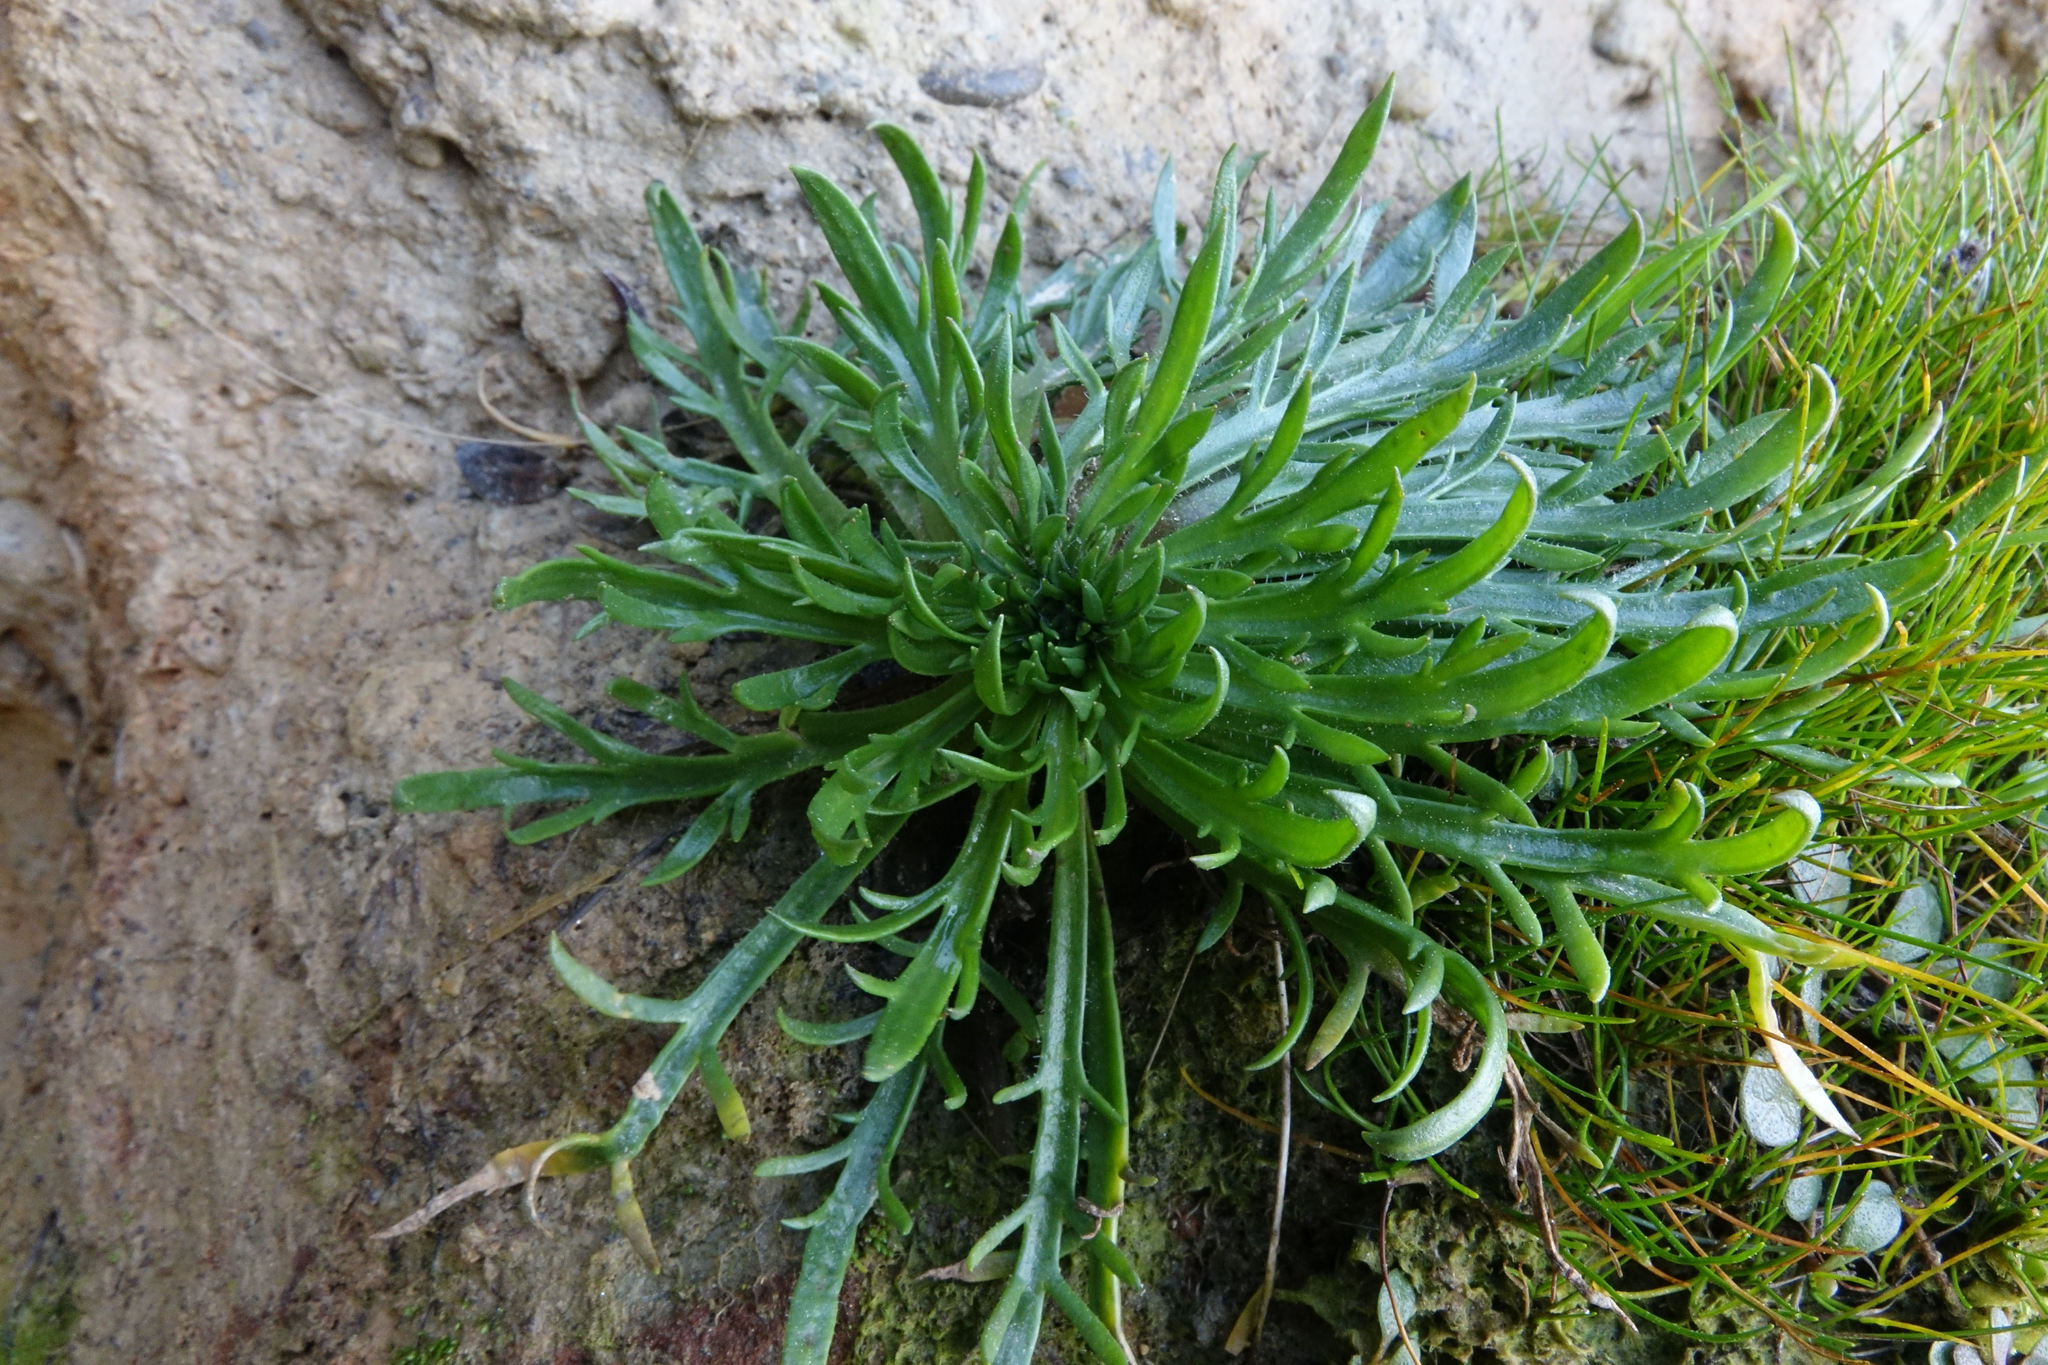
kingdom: Plantae
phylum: Tracheophyta
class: Magnoliopsida
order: Lamiales
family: Plantaginaceae
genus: Plantago
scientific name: Plantago coronopus
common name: Buck's-horn plantain
